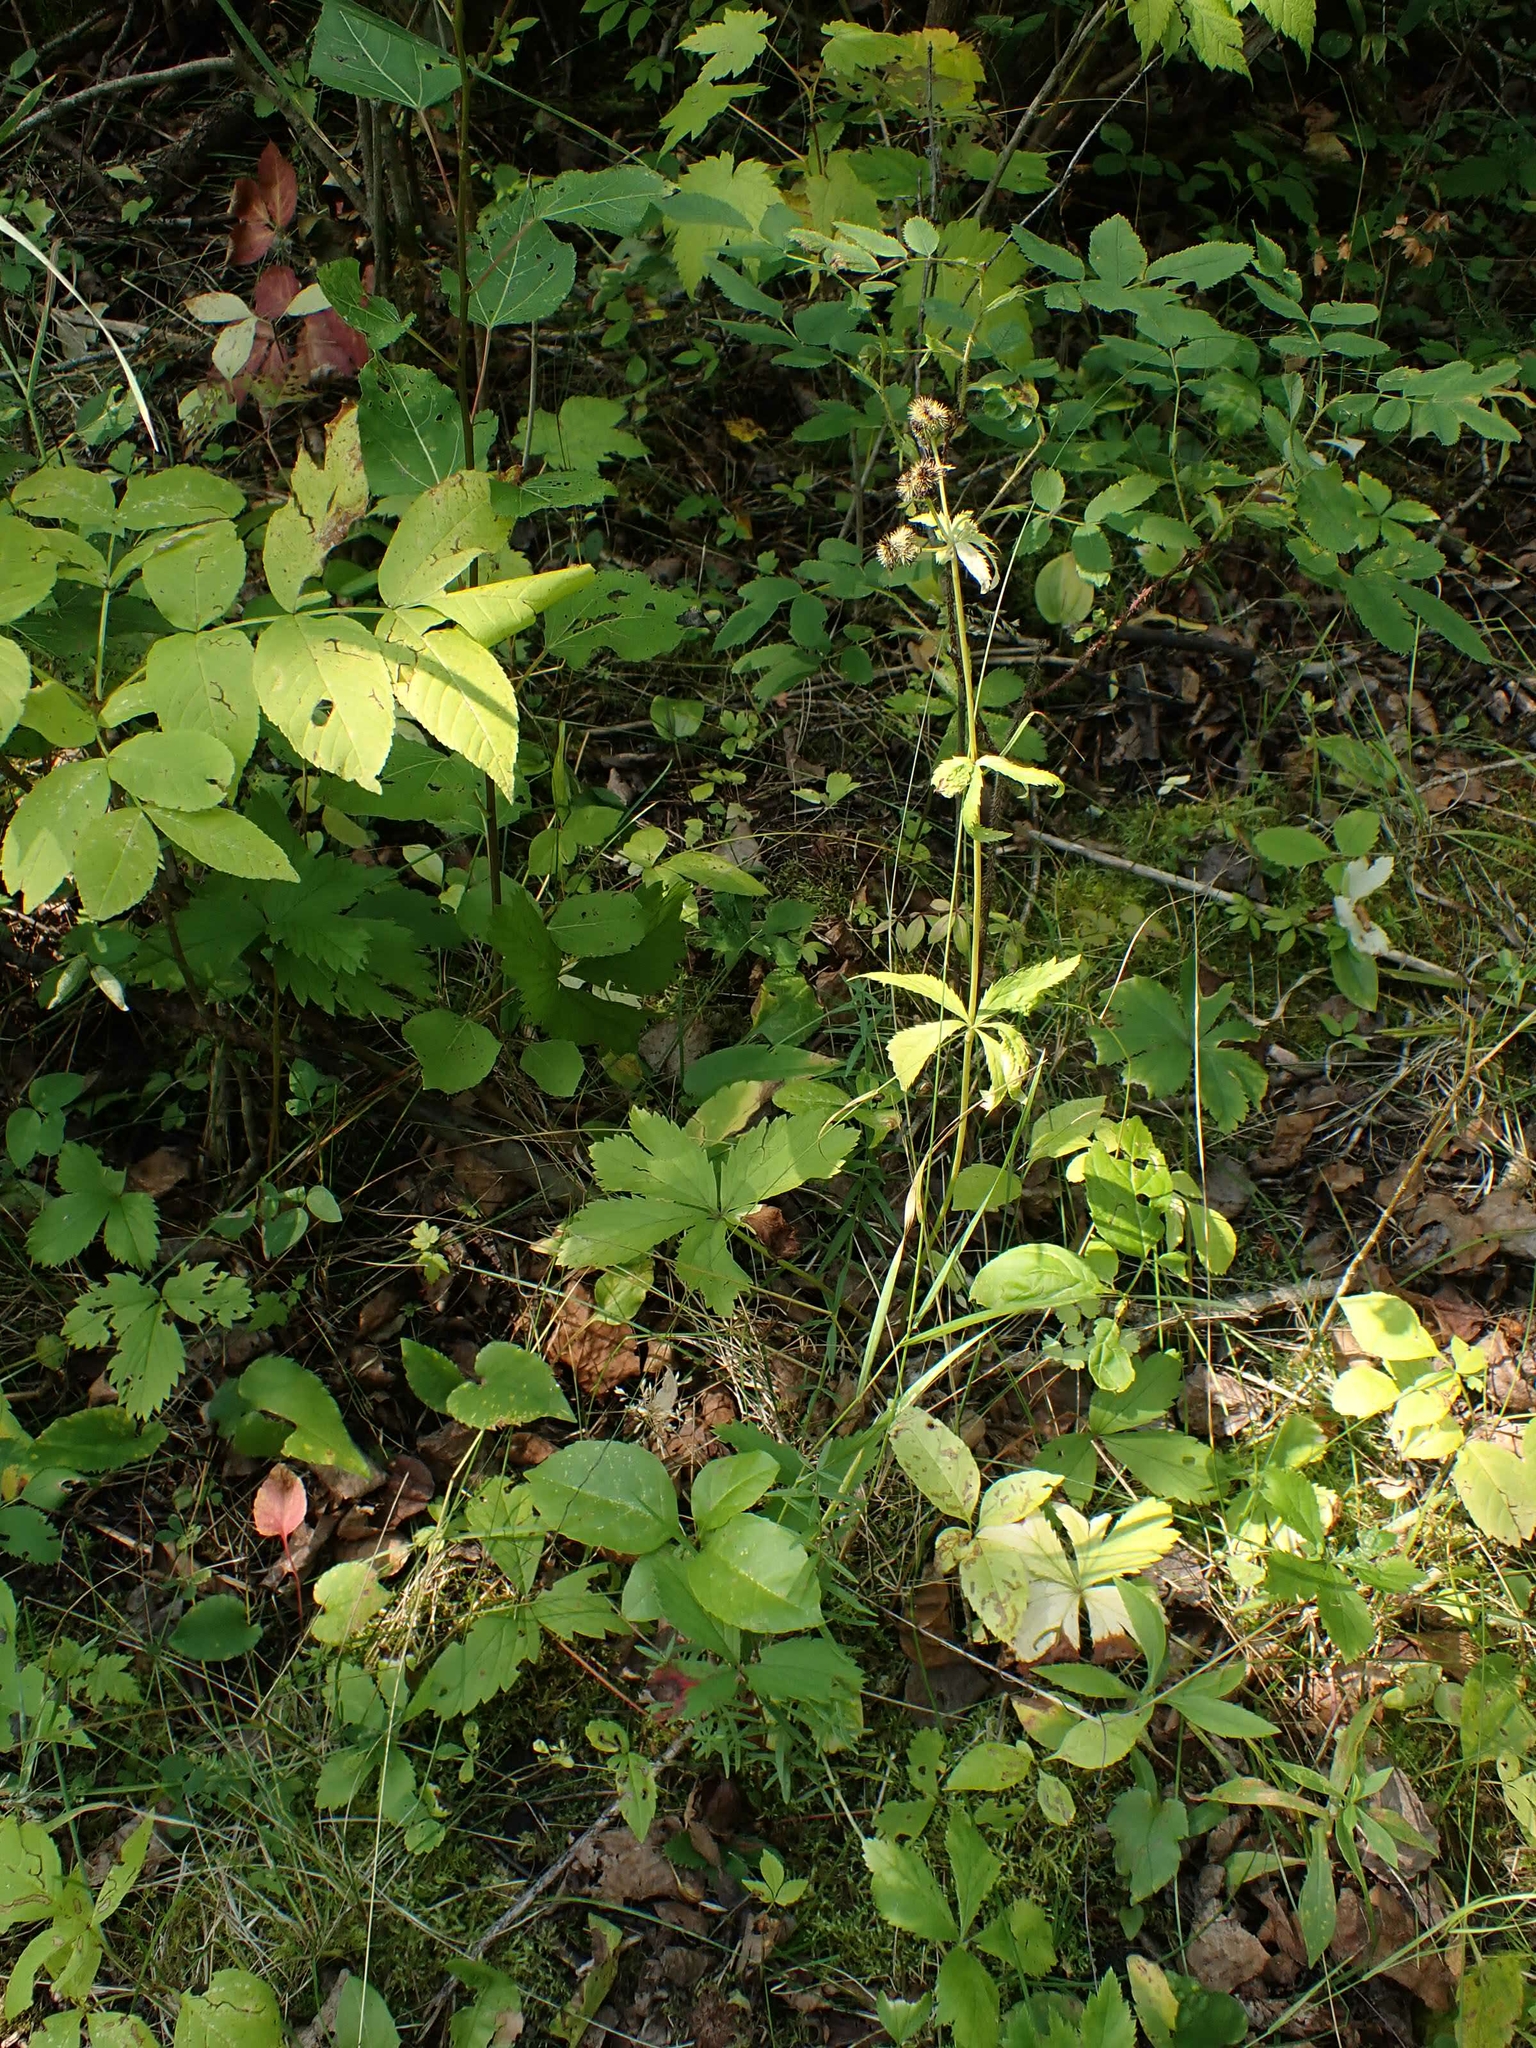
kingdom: Plantae
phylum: Tracheophyta
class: Magnoliopsida
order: Apiales
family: Apiaceae
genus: Sanicula
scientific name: Sanicula marilandica
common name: Black snakeroot
